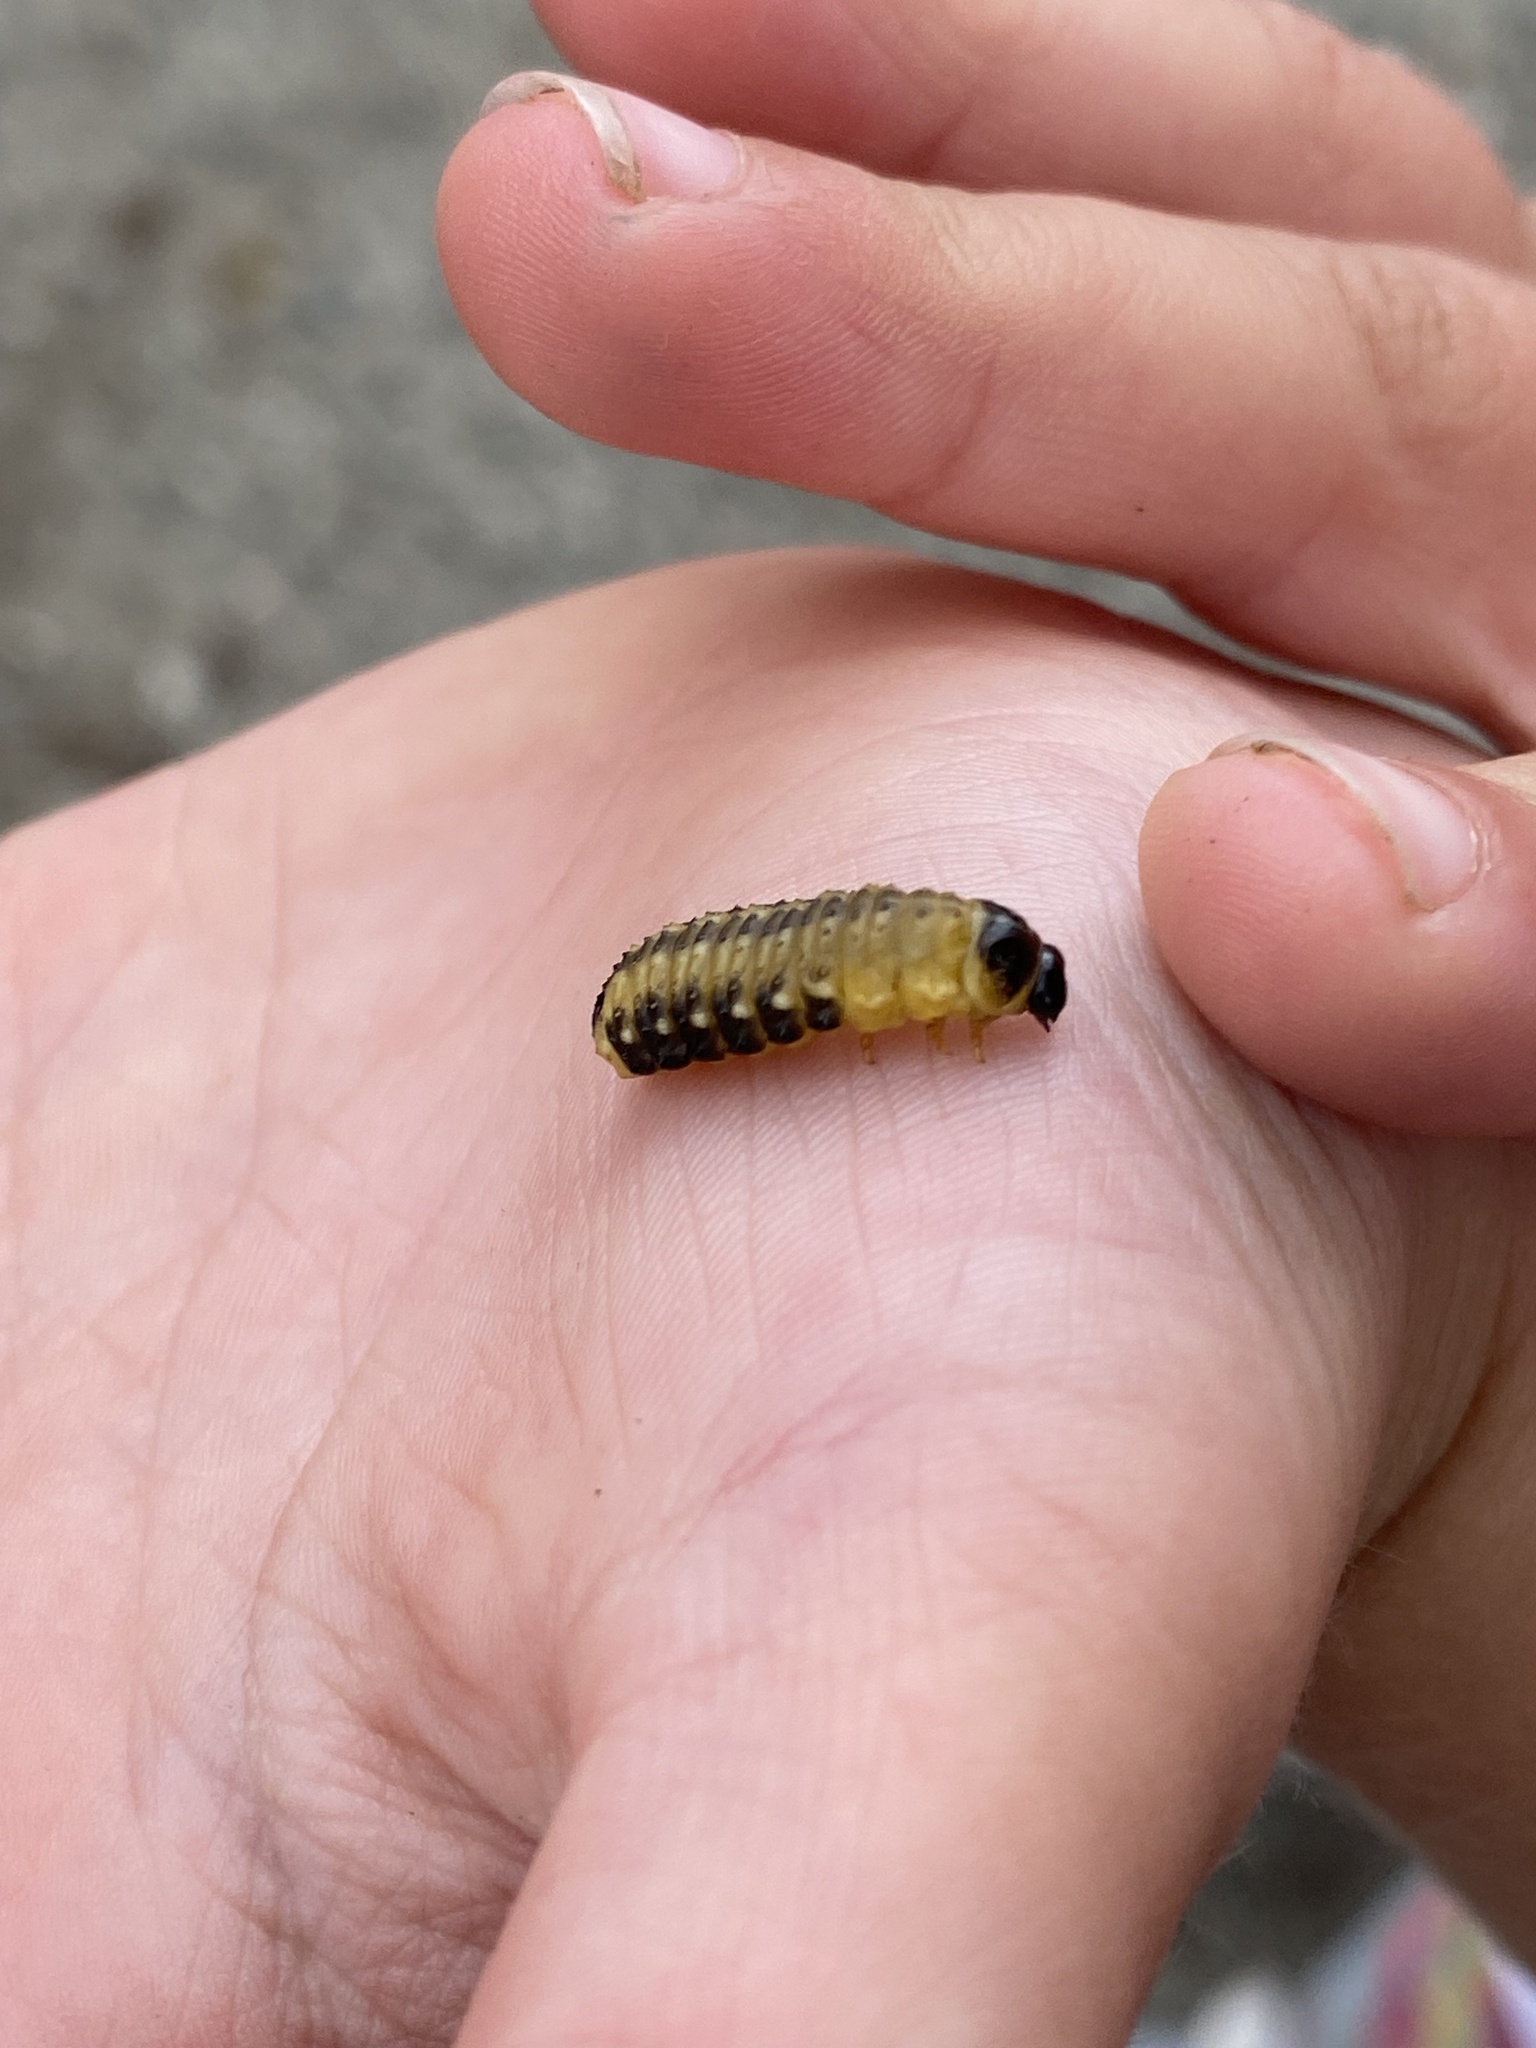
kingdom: Animalia
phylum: Arthropoda
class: Insecta
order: Coleoptera
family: Chrysomelidae
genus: Paropsis
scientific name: Paropsis
